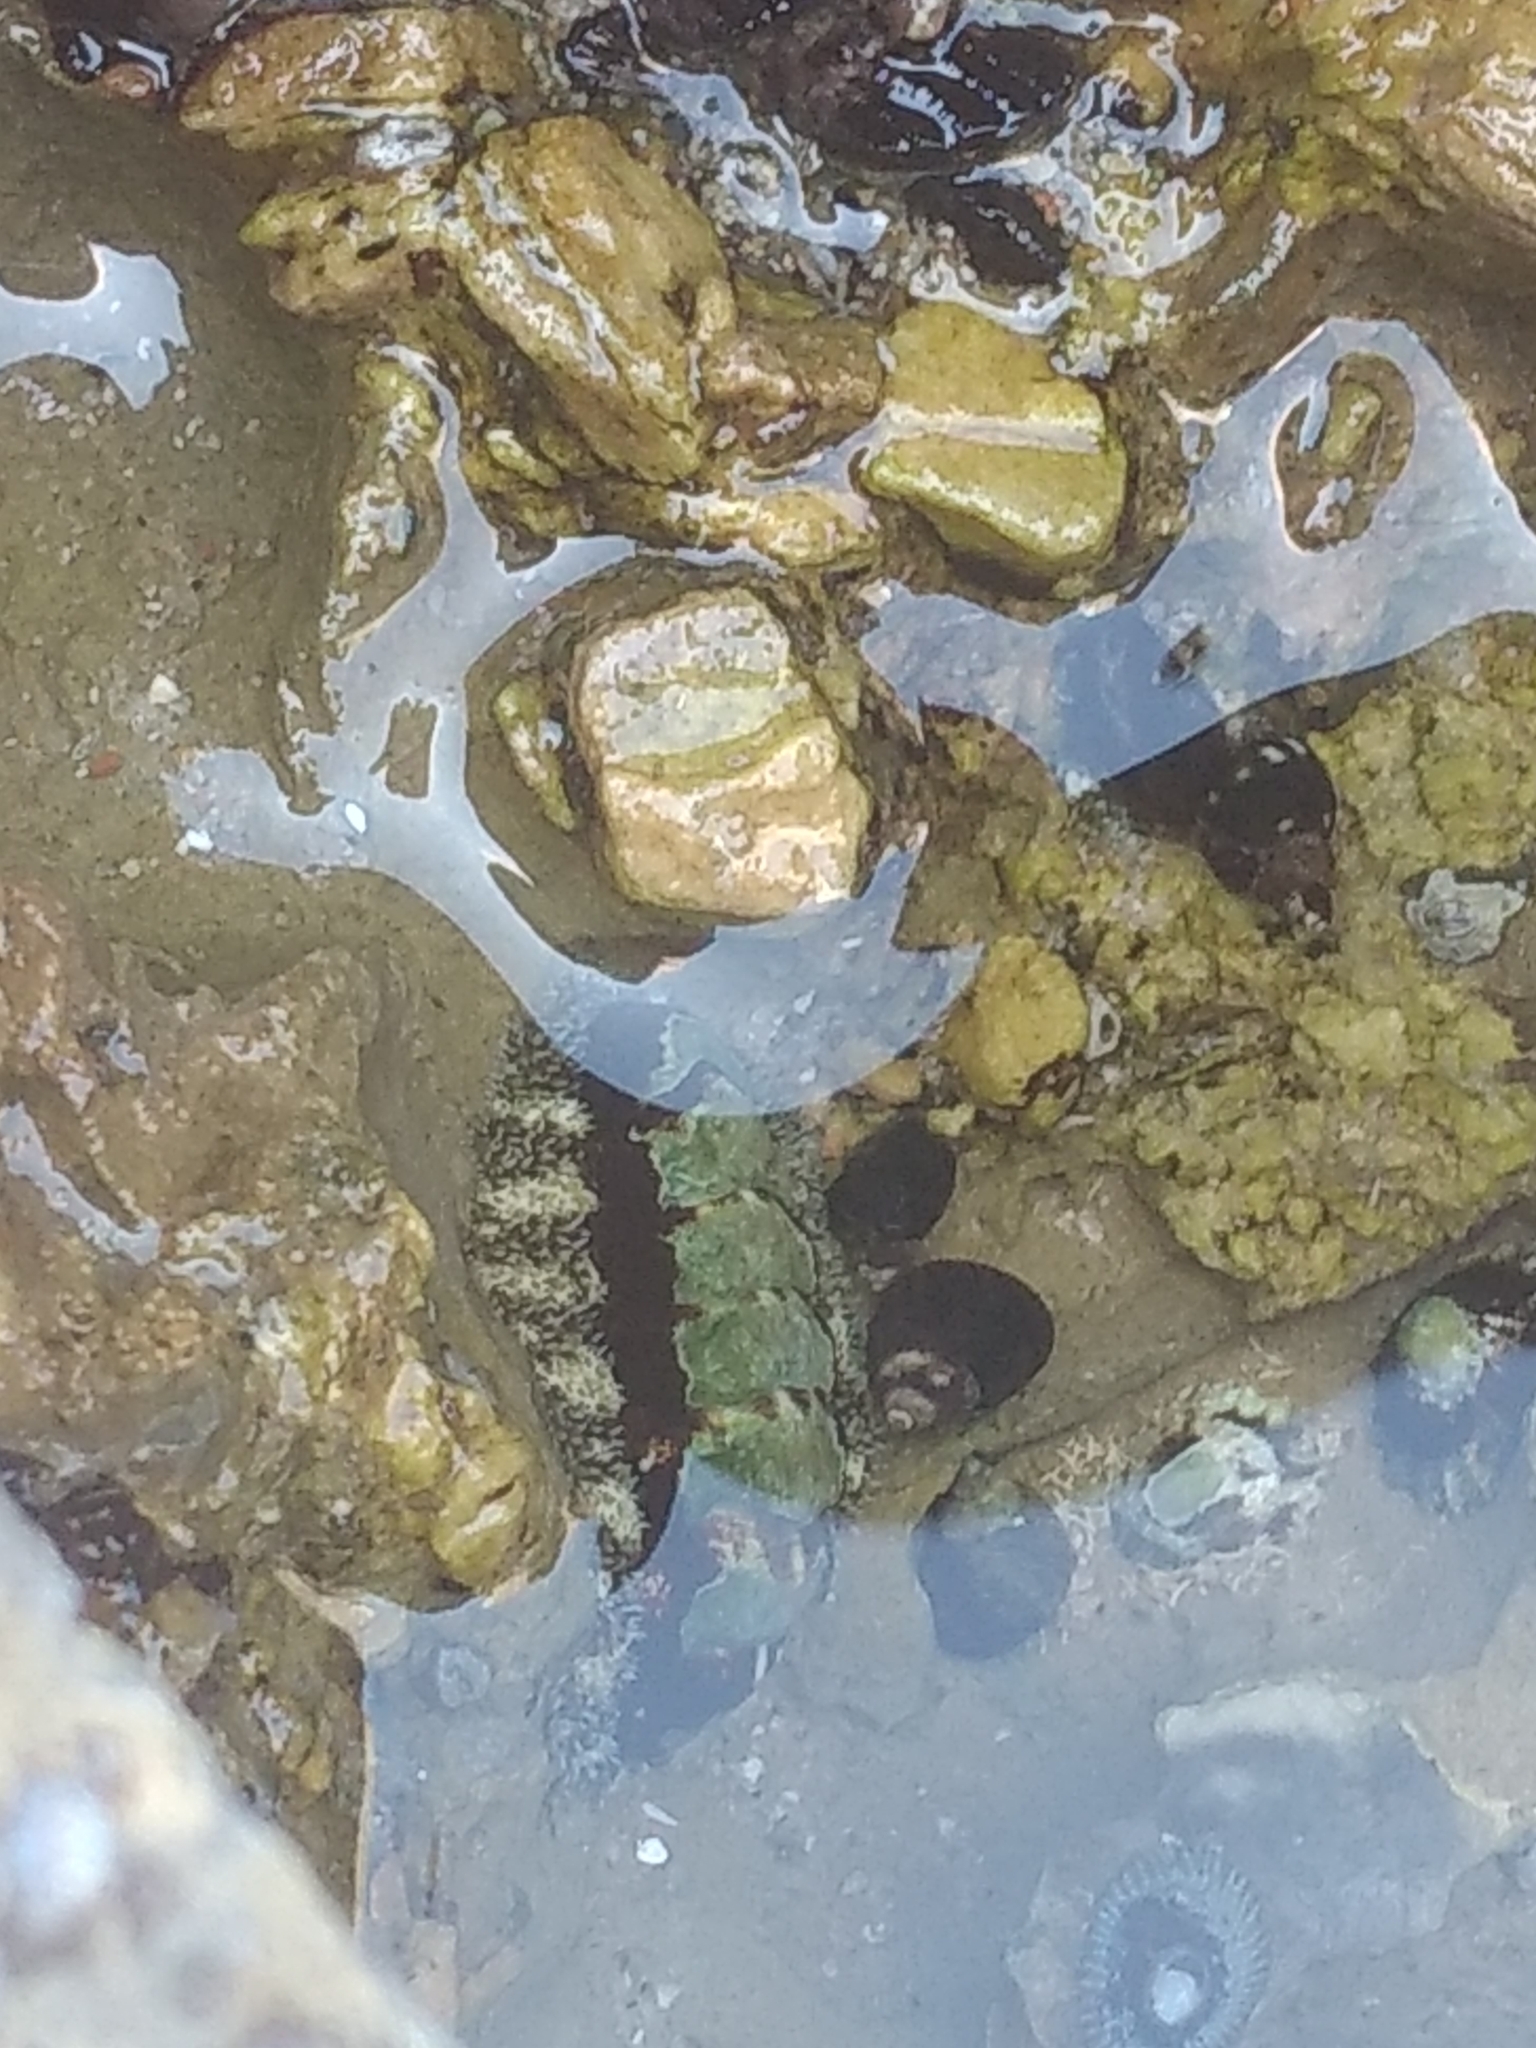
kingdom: Animalia
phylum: Mollusca
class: Polyplacophora
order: Chitonida
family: Tonicellidae
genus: Nuttallina
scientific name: Nuttallina californica
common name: California nuttall chiton
